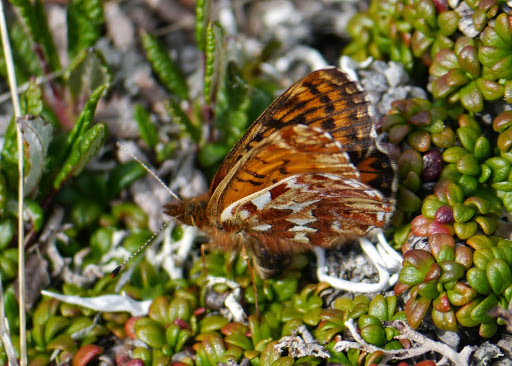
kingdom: Animalia
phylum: Arthropoda
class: Insecta
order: Lepidoptera
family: Nymphalidae
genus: Argynnis
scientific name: Argynnis butleri
